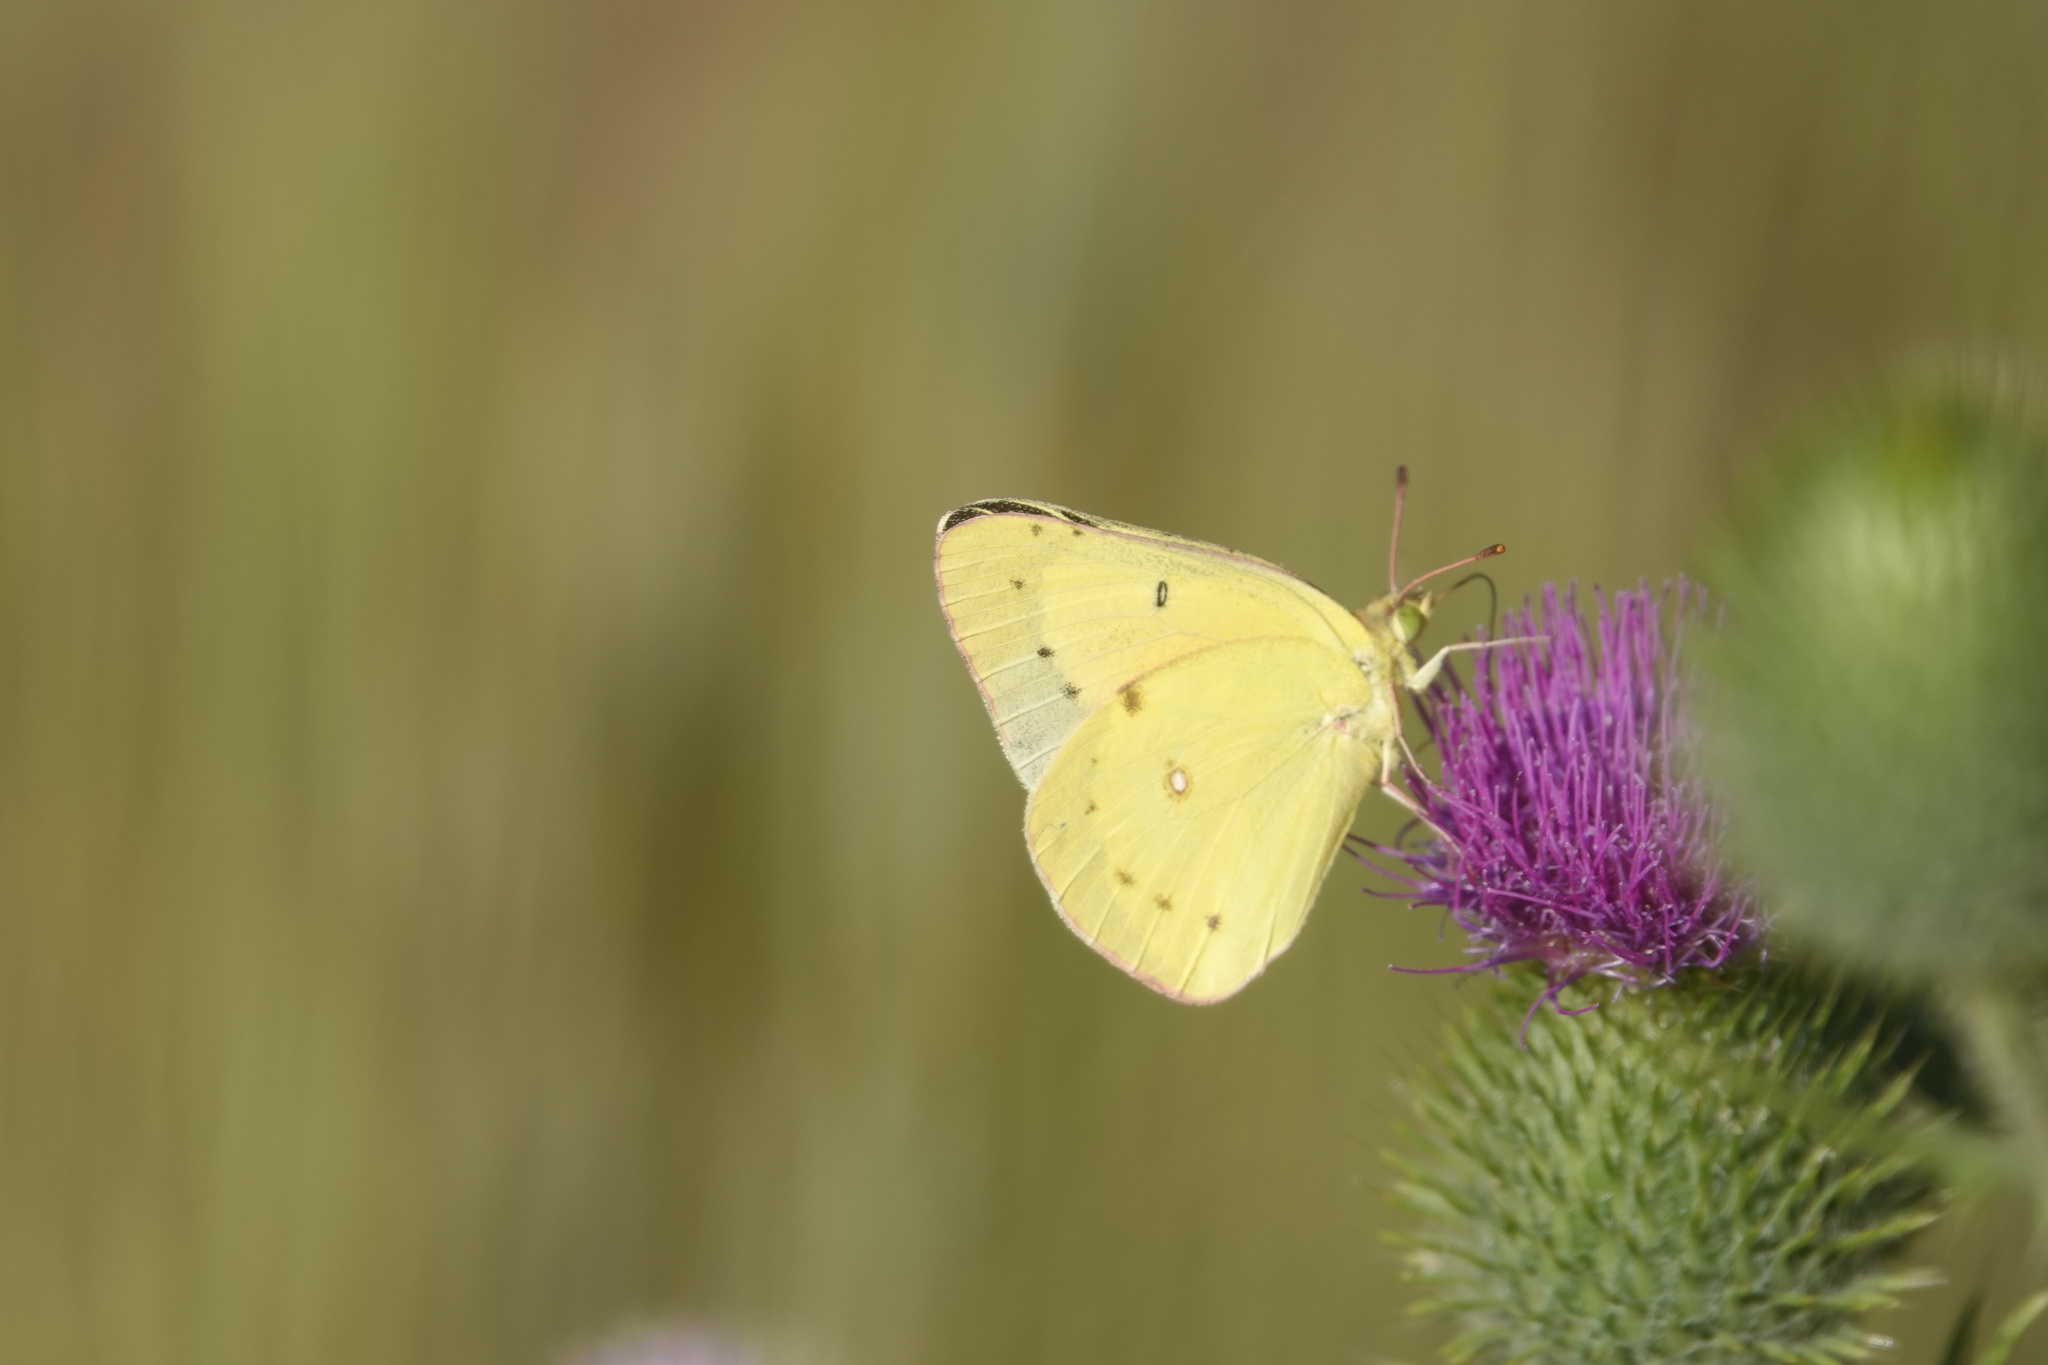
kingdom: Animalia
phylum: Arthropoda
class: Insecta
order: Lepidoptera
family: Pieridae
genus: Colias
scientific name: Colias eurytheme
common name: Alfalfa butterfly
